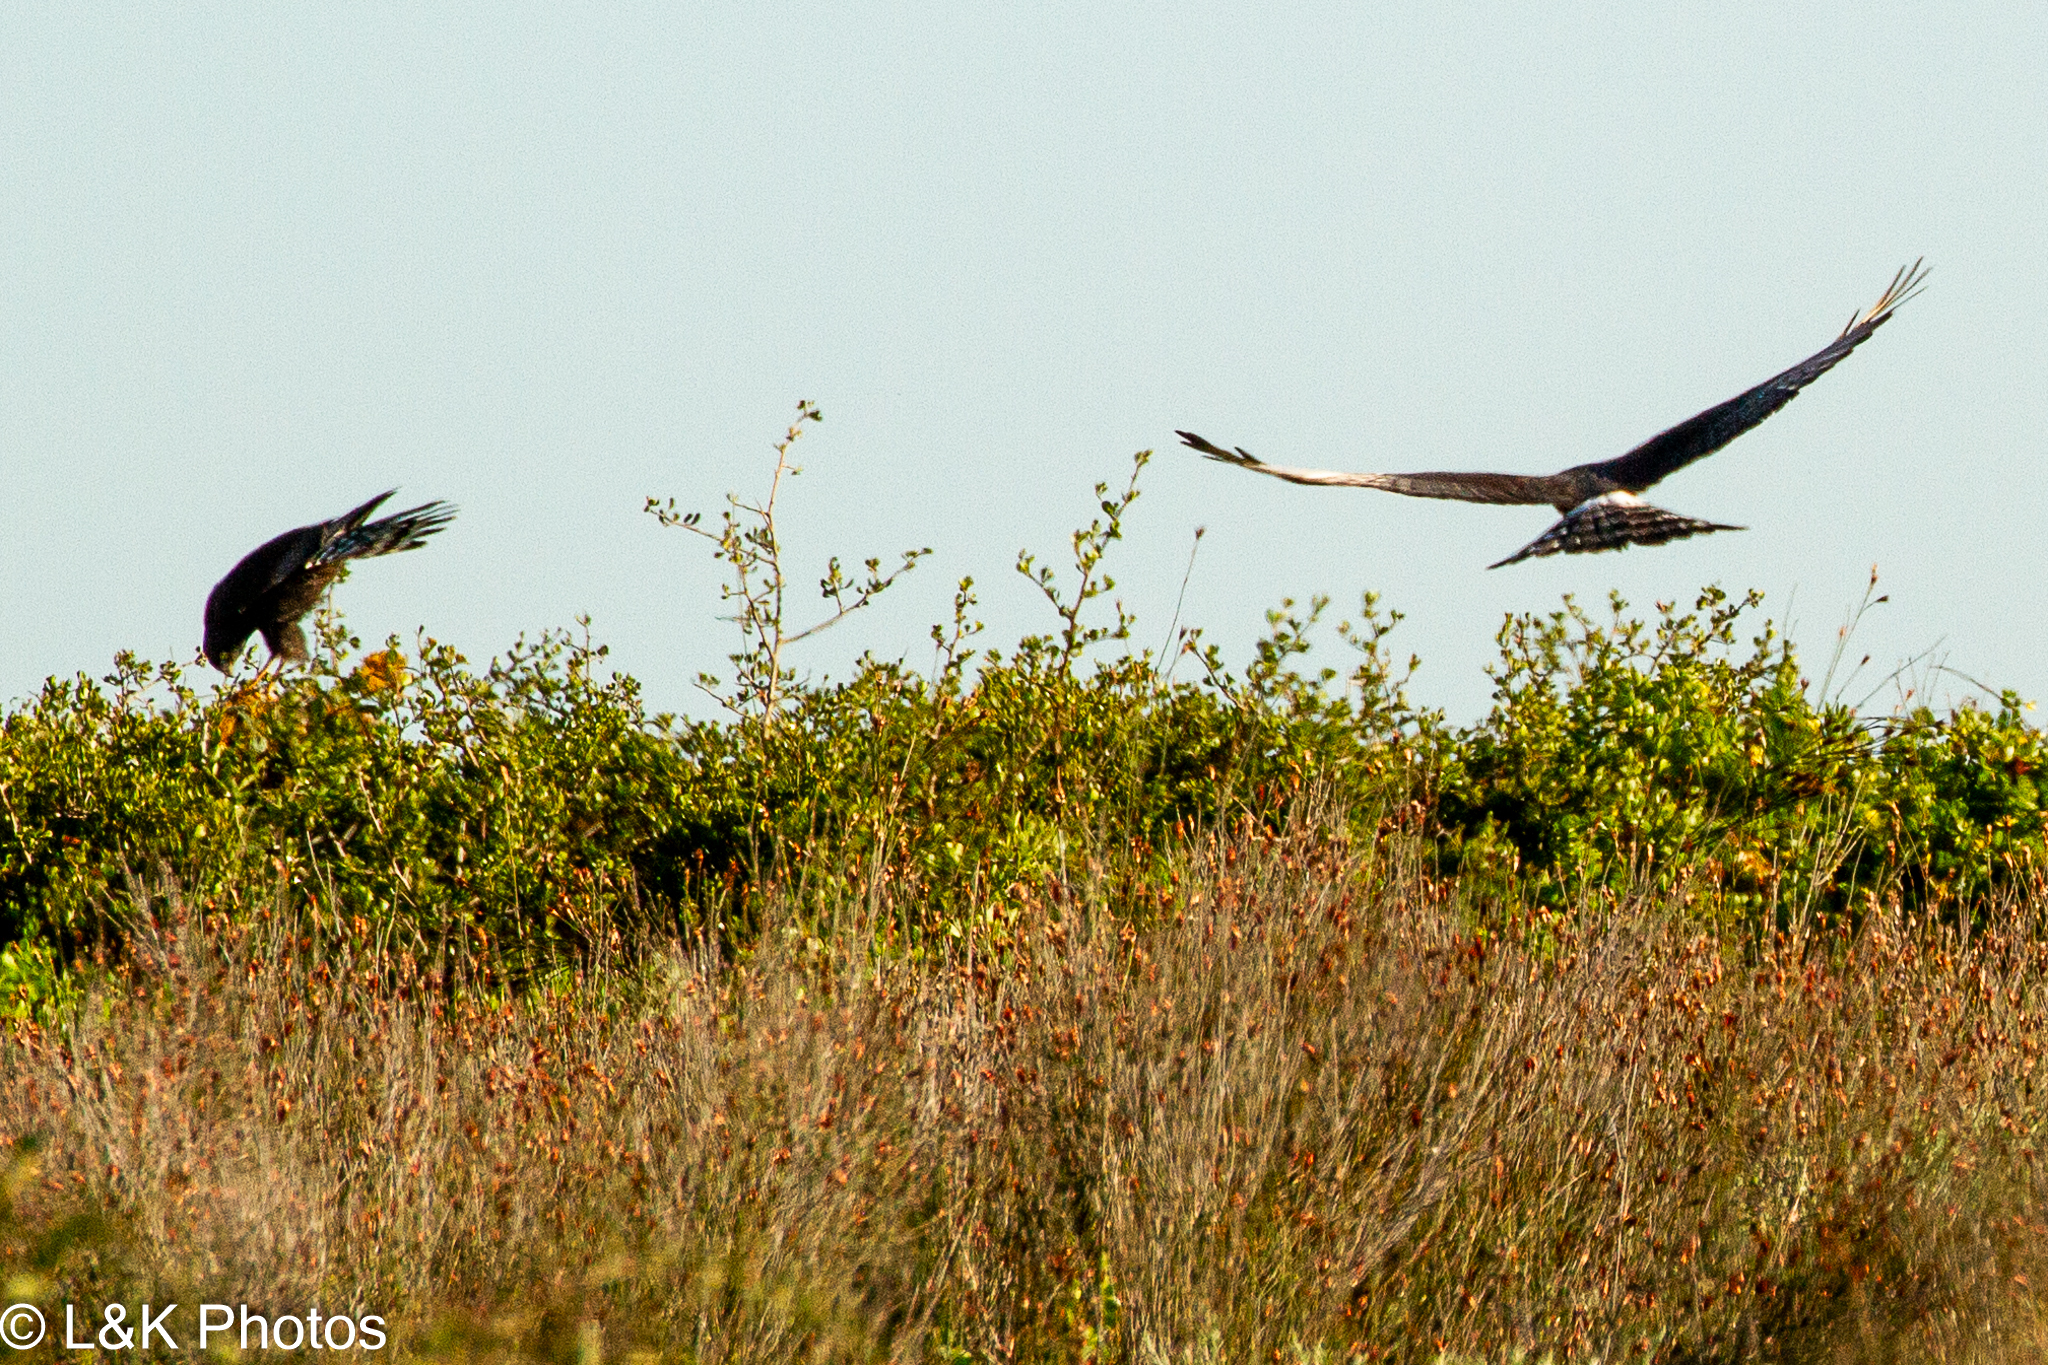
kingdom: Animalia
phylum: Chordata
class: Aves
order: Accipitriformes
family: Accipitridae
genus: Circus
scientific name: Circus maurus
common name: Black harrier
